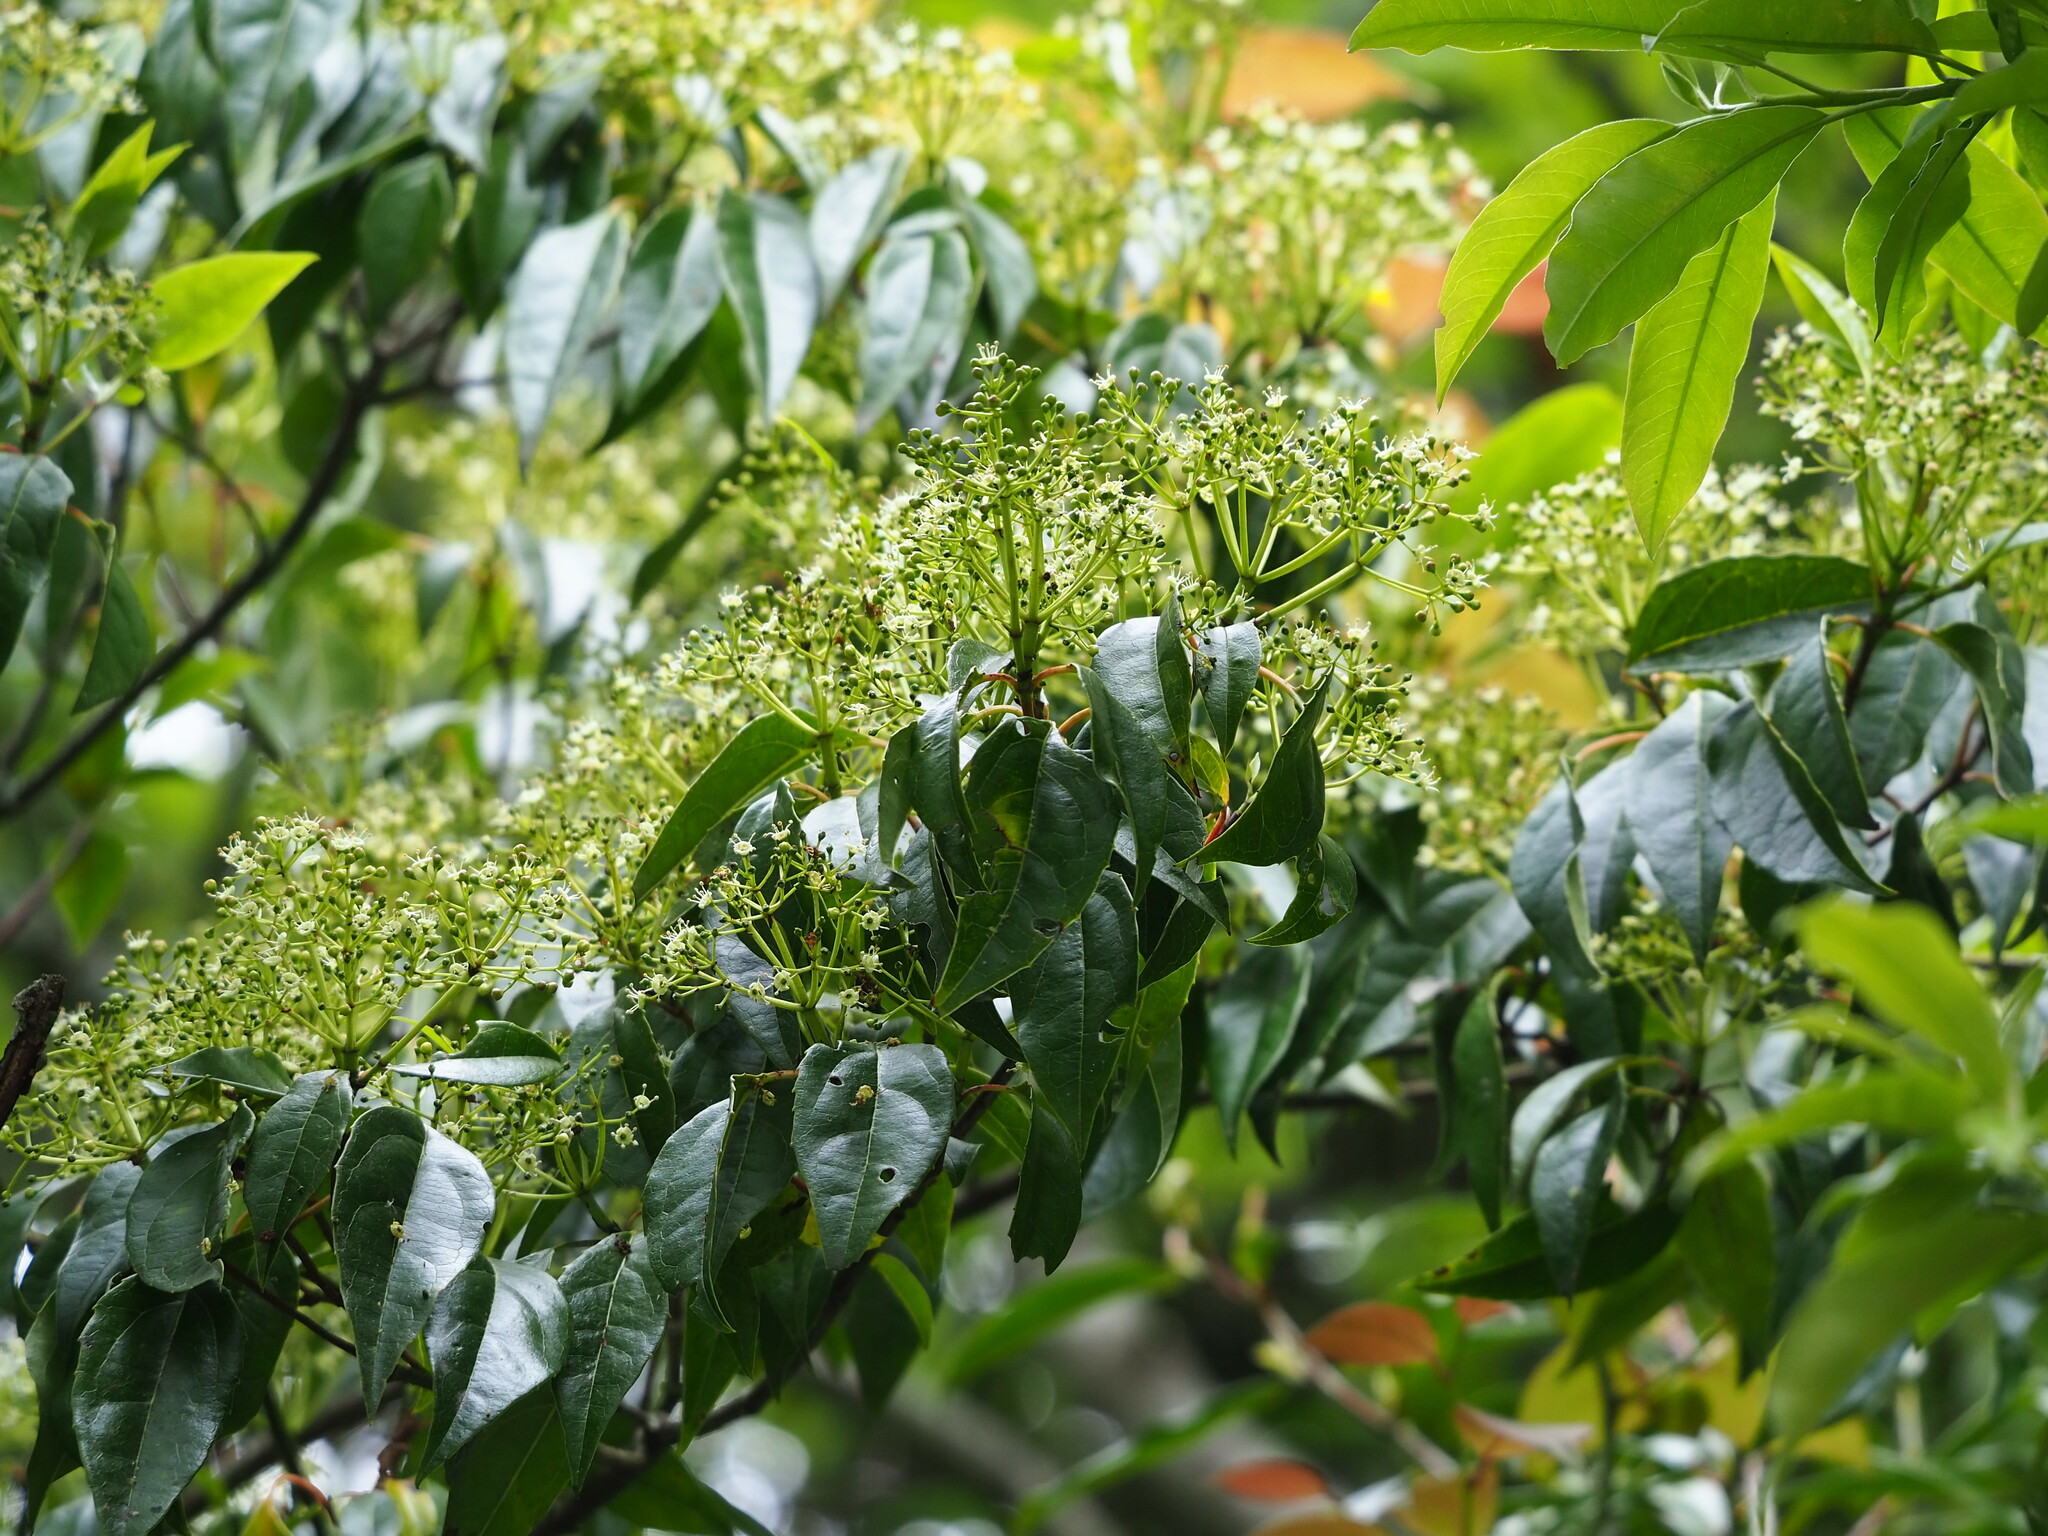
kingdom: Plantae
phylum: Tracheophyta
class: Magnoliopsida
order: Dipsacales
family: Viburnaceae
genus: Viburnum
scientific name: Viburnum propinquum
